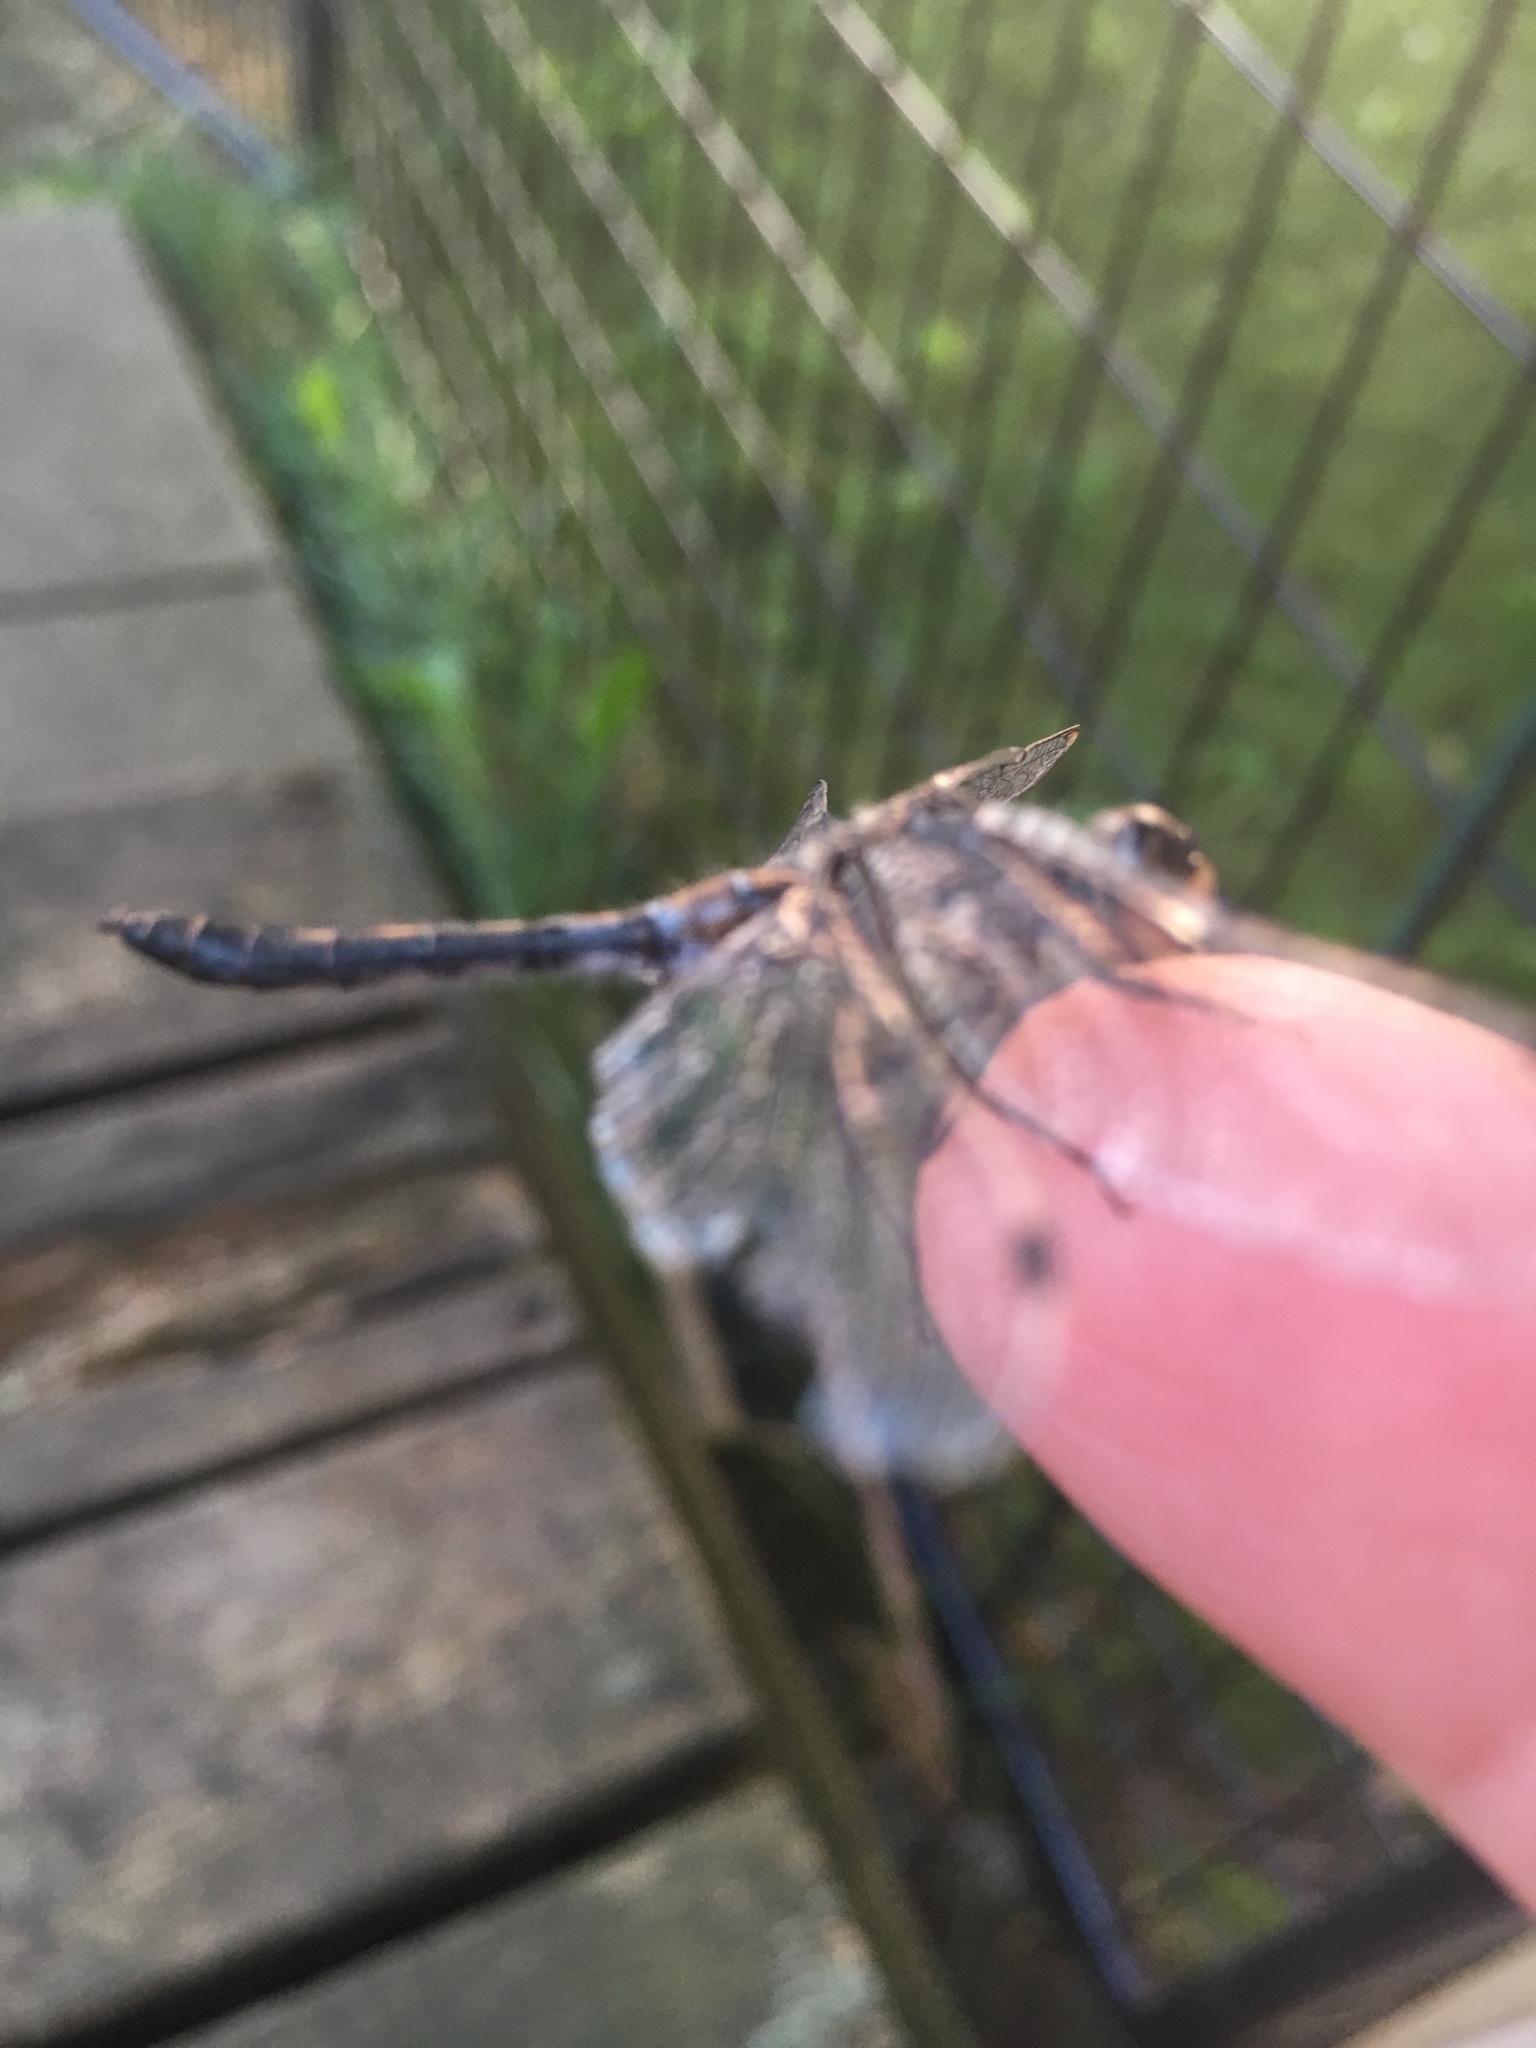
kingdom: Animalia
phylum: Arthropoda
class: Insecta
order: Odonata
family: Libellulidae
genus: Leucorrhinia
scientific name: Leucorrhinia proxima
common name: Belted whiteface
